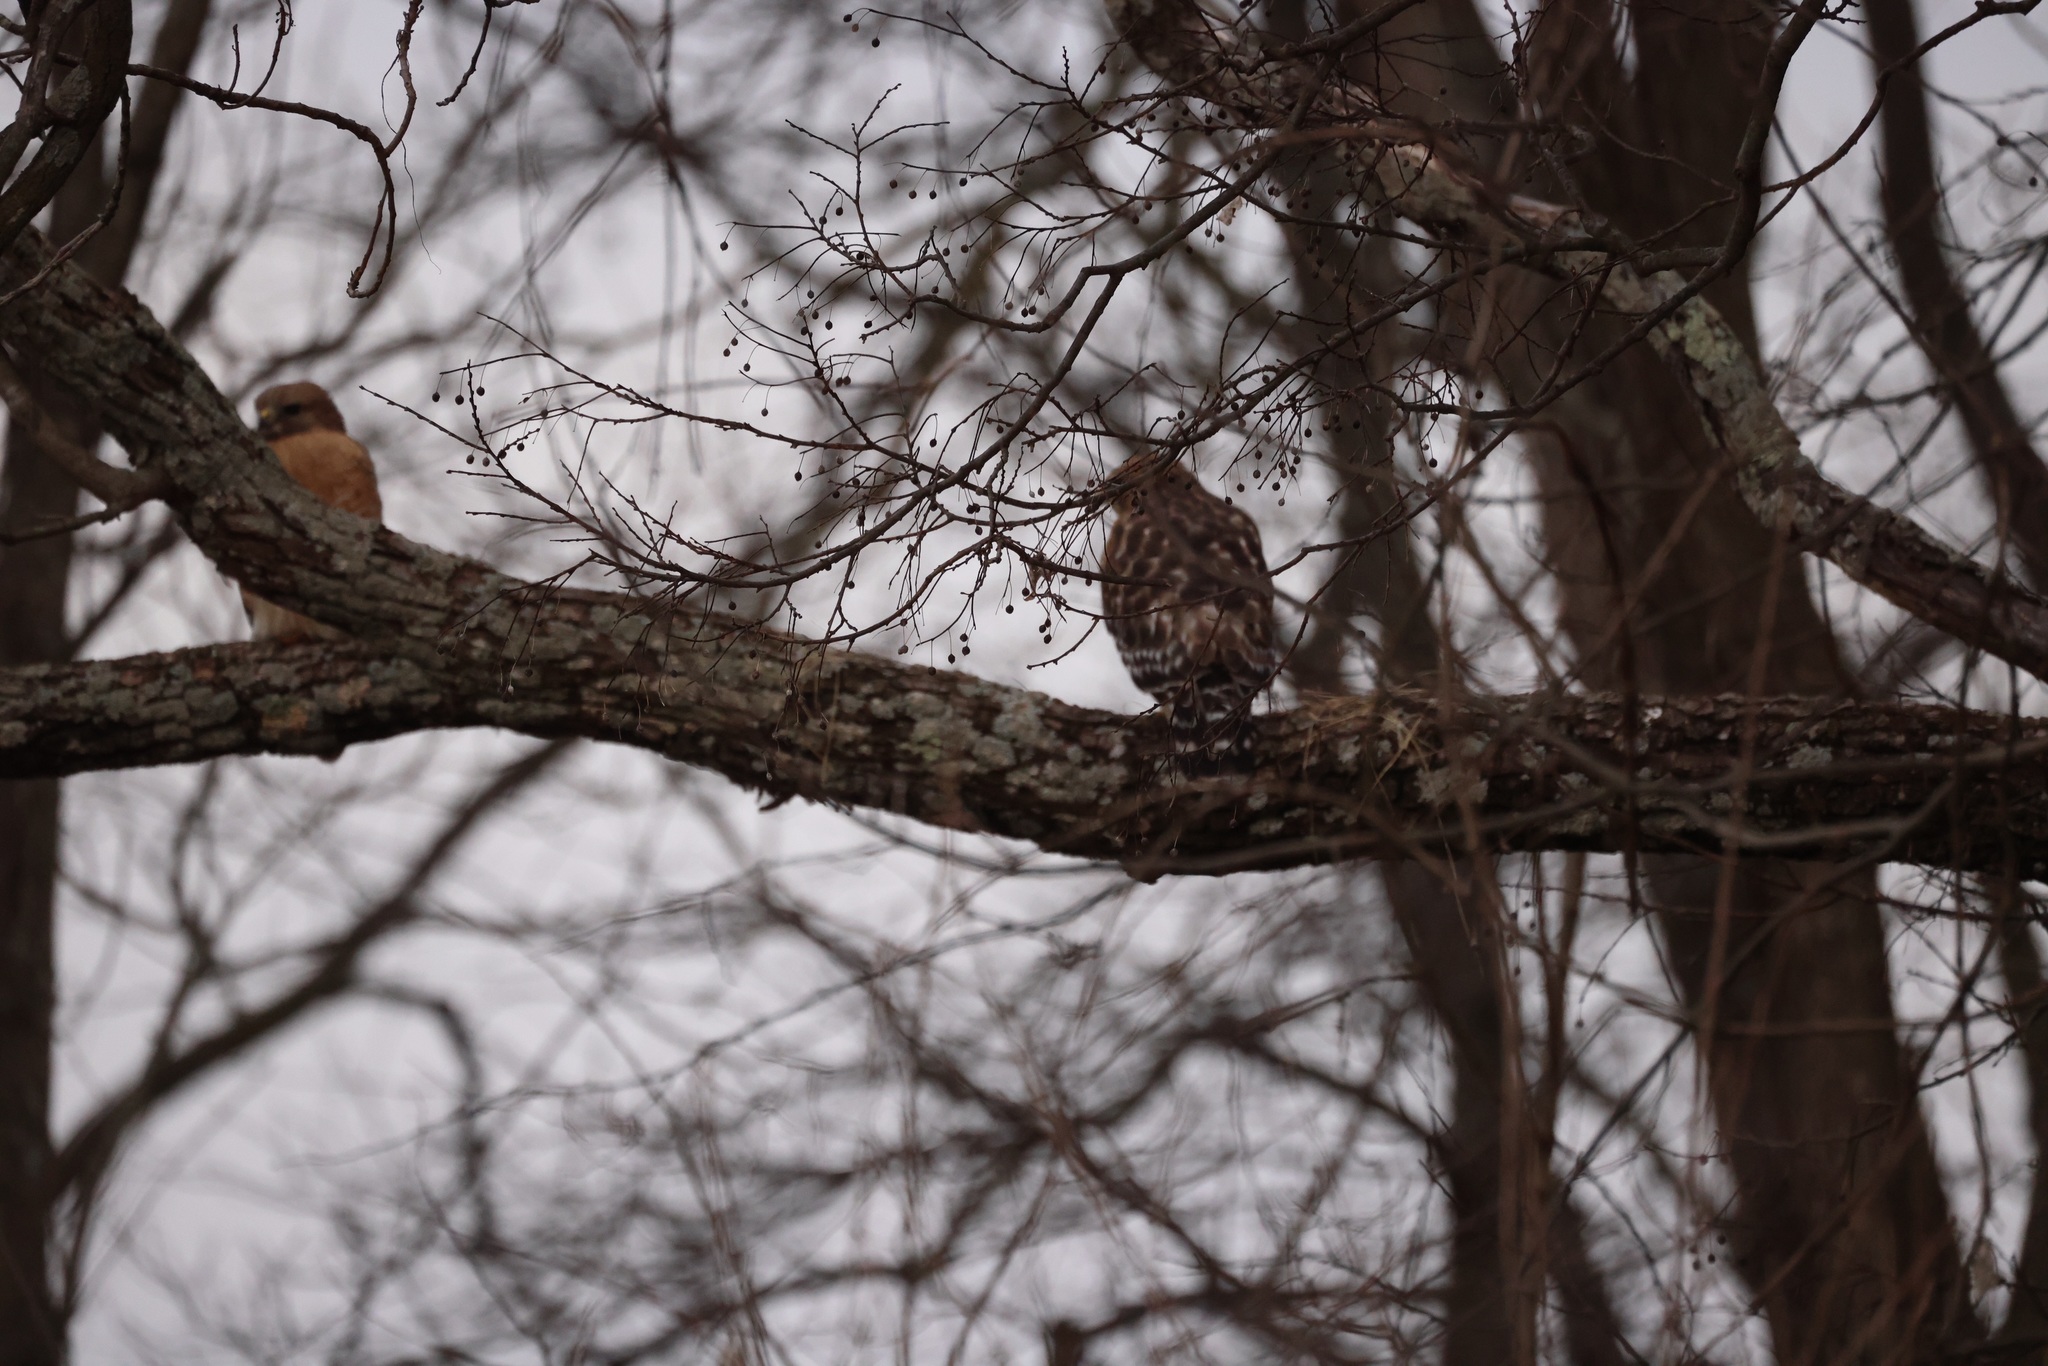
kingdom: Animalia
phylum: Chordata
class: Aves
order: Accipitriformes
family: Accipitridae
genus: Buteo
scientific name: Buteo lineatus
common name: Red-shouldered hawk
